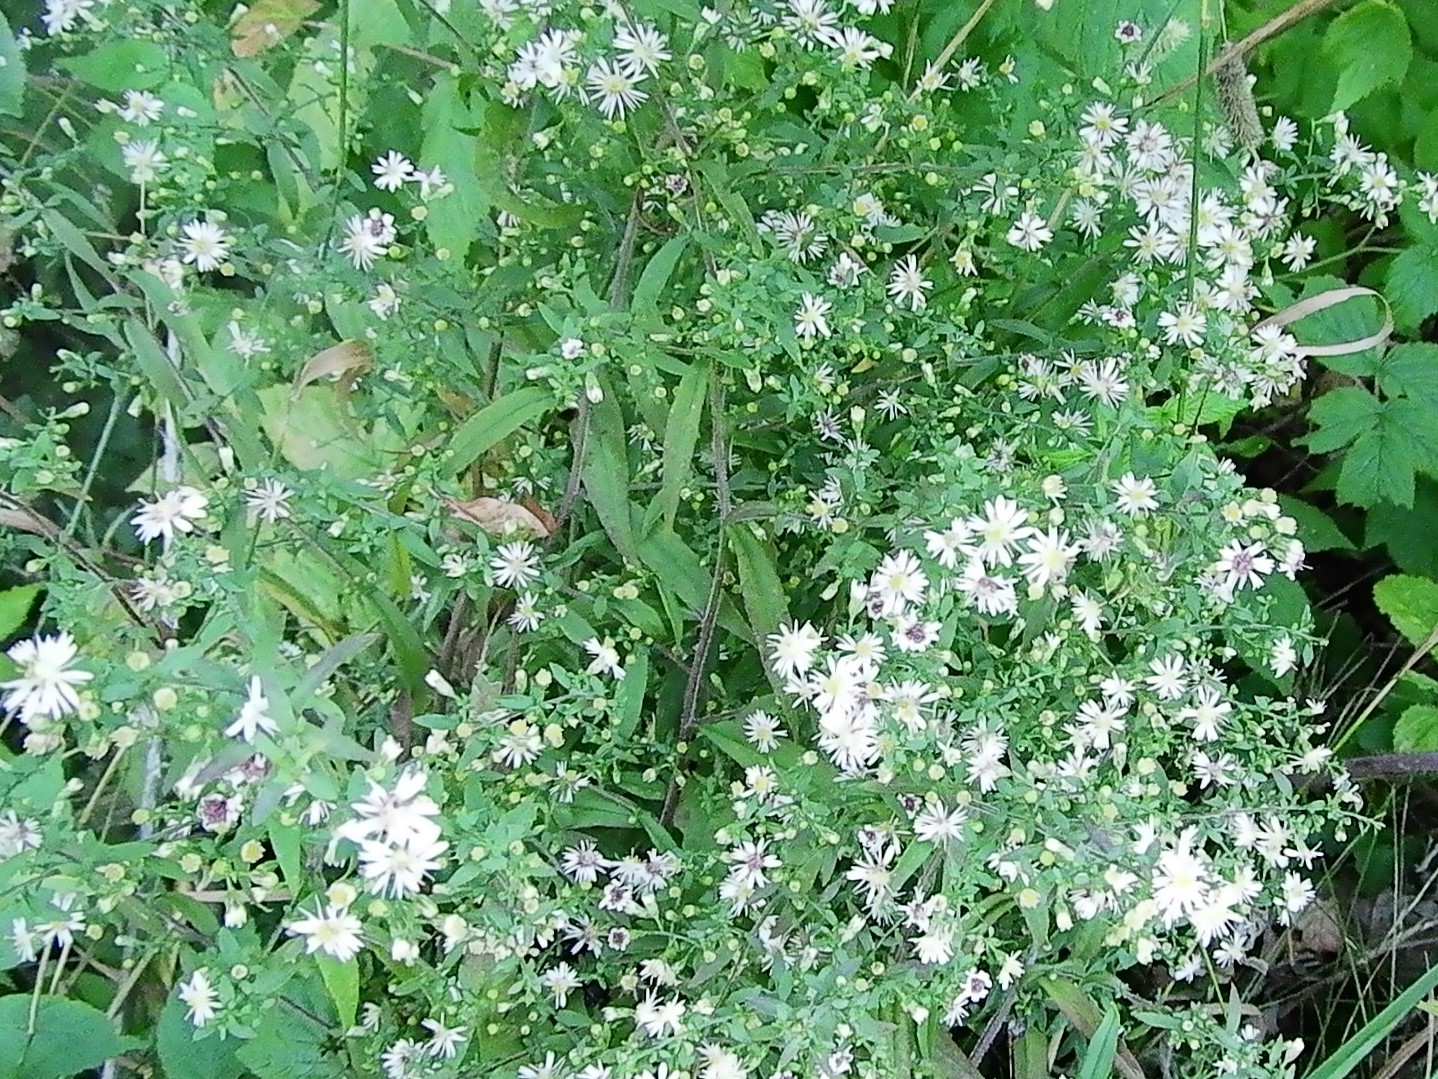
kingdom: Plantae
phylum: Tracheophyta
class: Magnoliopsida
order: Asterales
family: Asteraceae
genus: Symphyotrichum
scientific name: Symphyotrichum lateriflorum
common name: Calico aster
